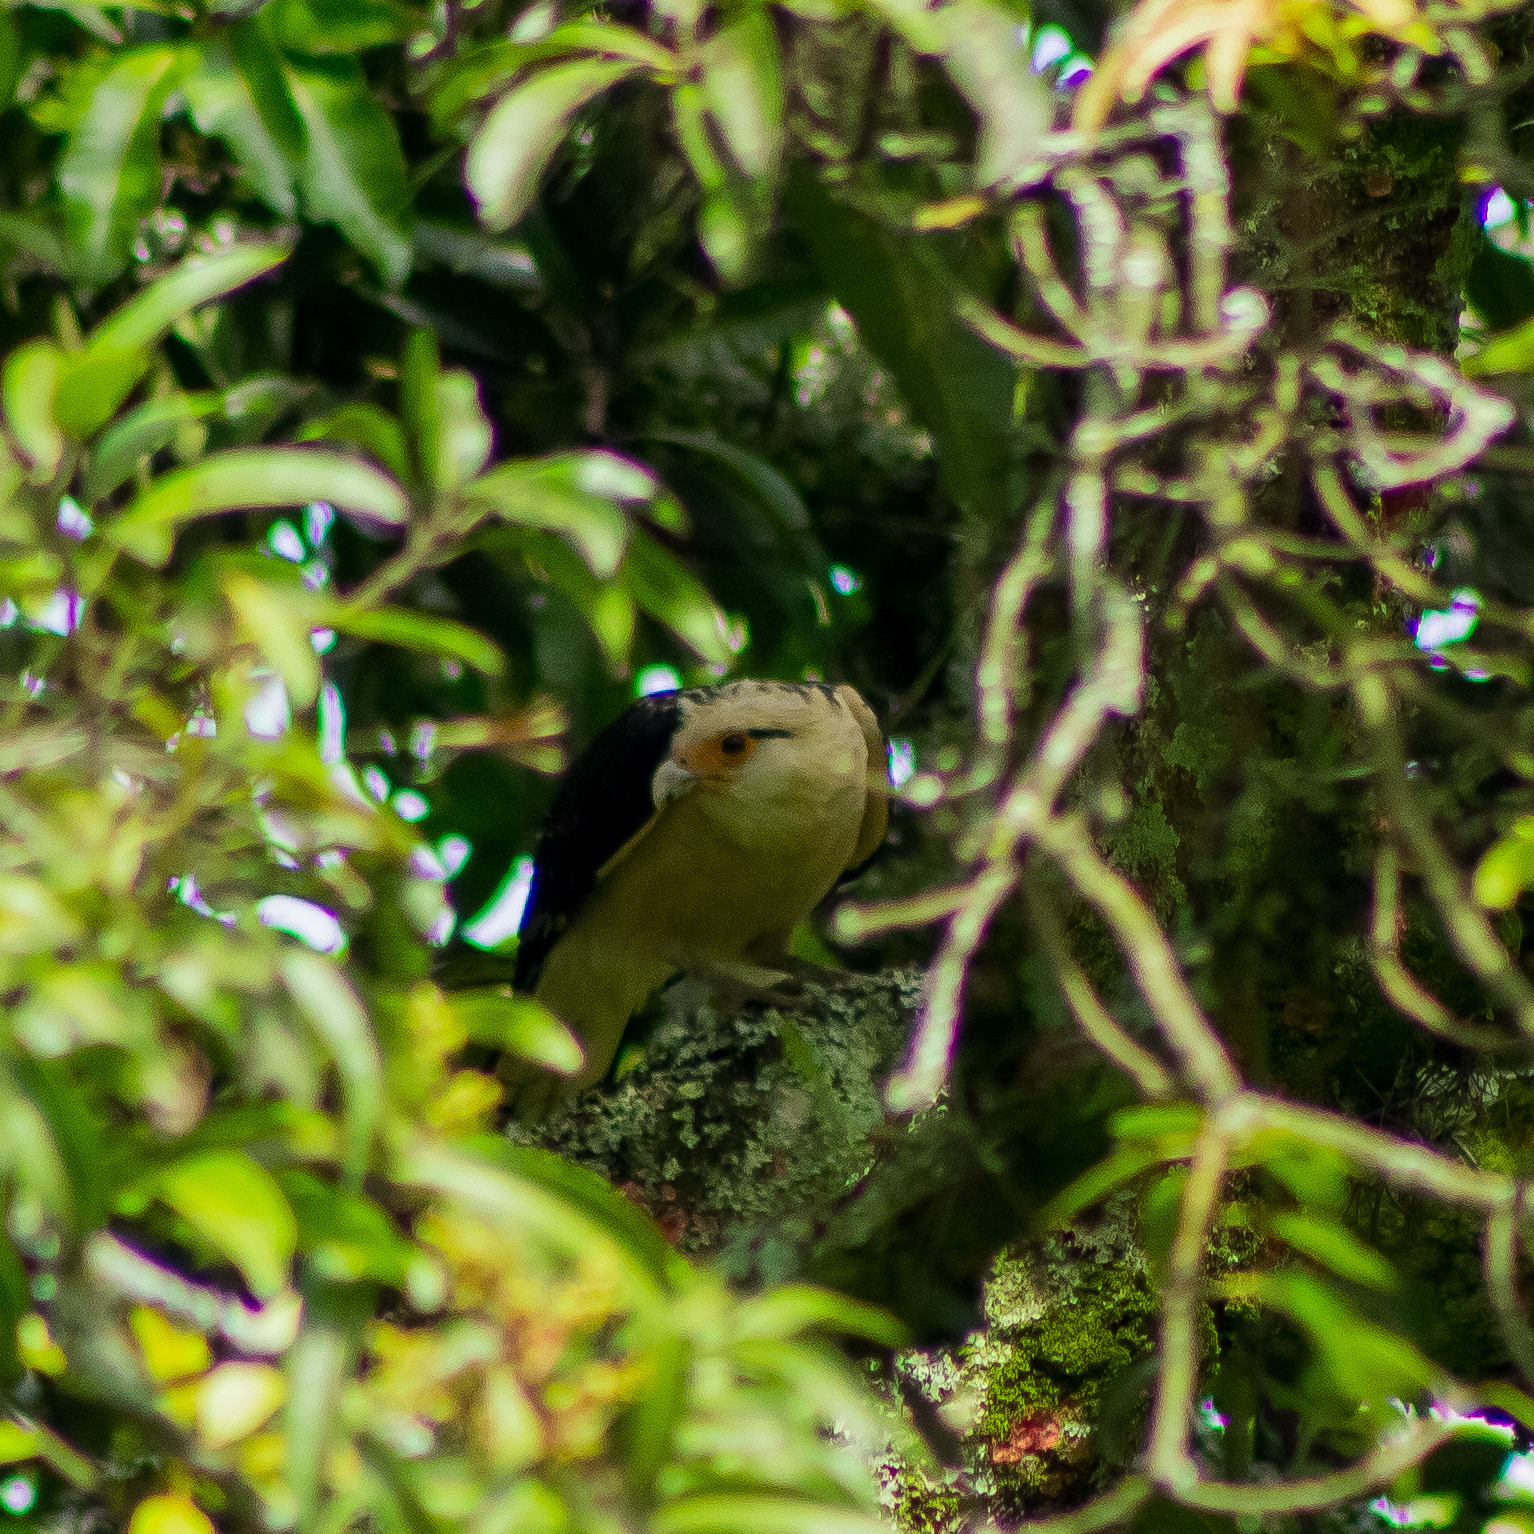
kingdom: Animalia
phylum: Chordata
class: Aves
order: Falconiformes
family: Falconidae
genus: Daptrius
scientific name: Daptrius
